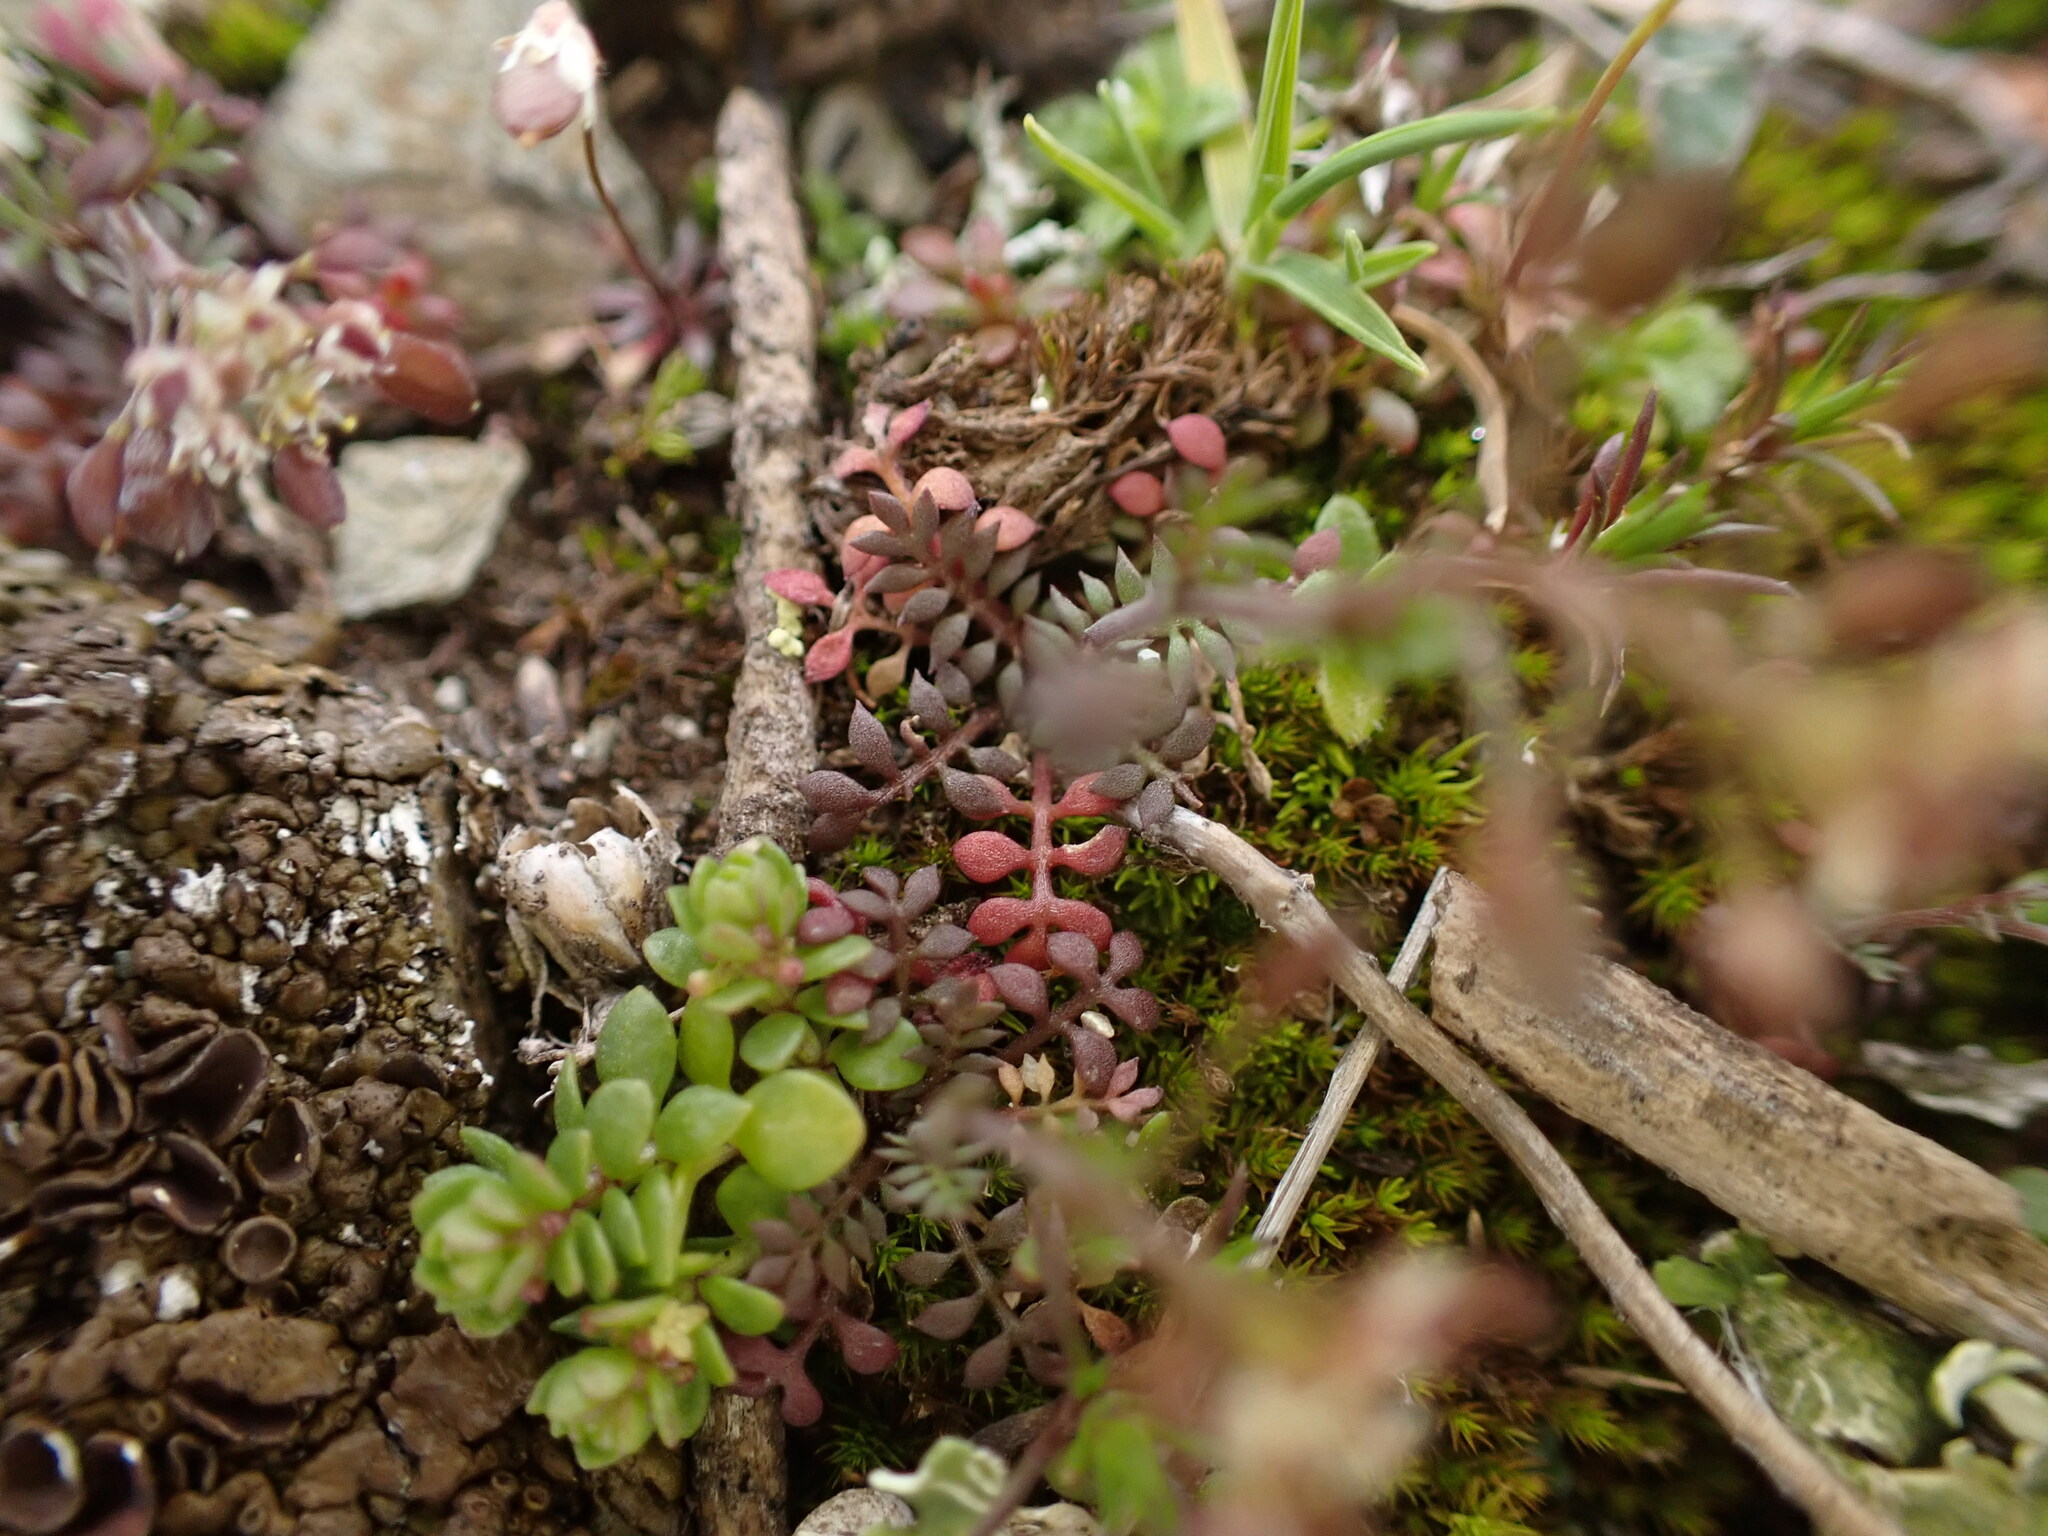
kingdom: Plantae
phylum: Tracheophyta
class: Magnoliopsida
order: Brassicales
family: Brassicaceae
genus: Hornungia
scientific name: Hornungia petraea
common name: Hutchinsia
